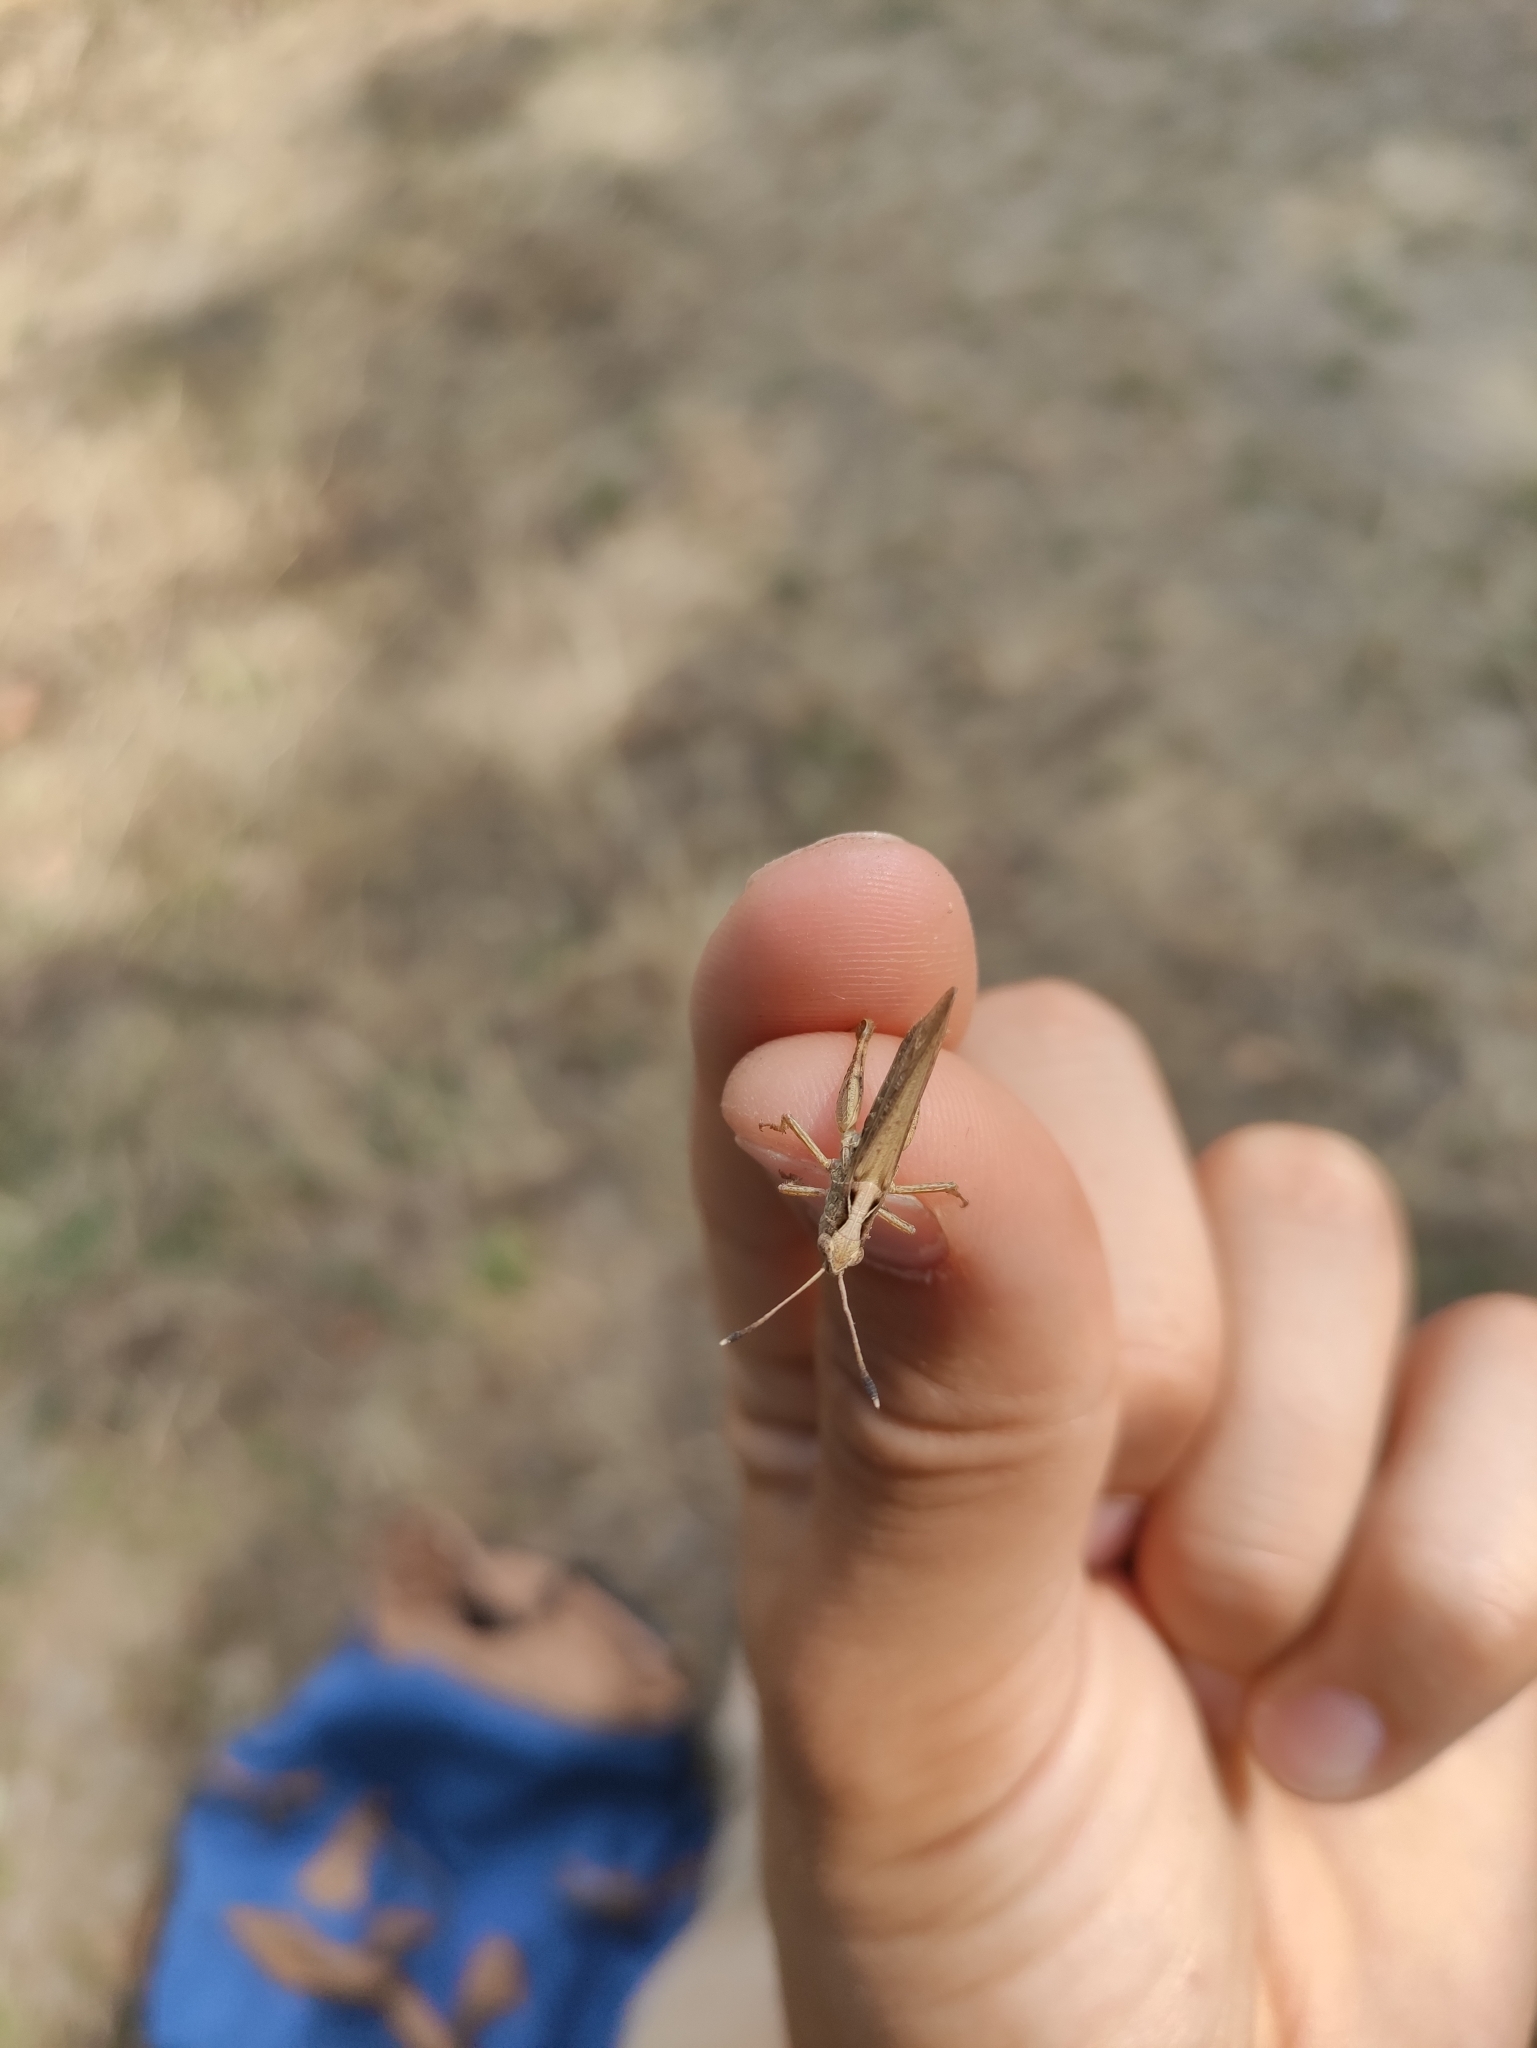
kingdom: Animalia
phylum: Arthropoda
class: Insecta
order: Orthoptera
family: Acrididae
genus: Gomphocerippus
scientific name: Gomphocerippus rufus
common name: Rufous grasshopper
